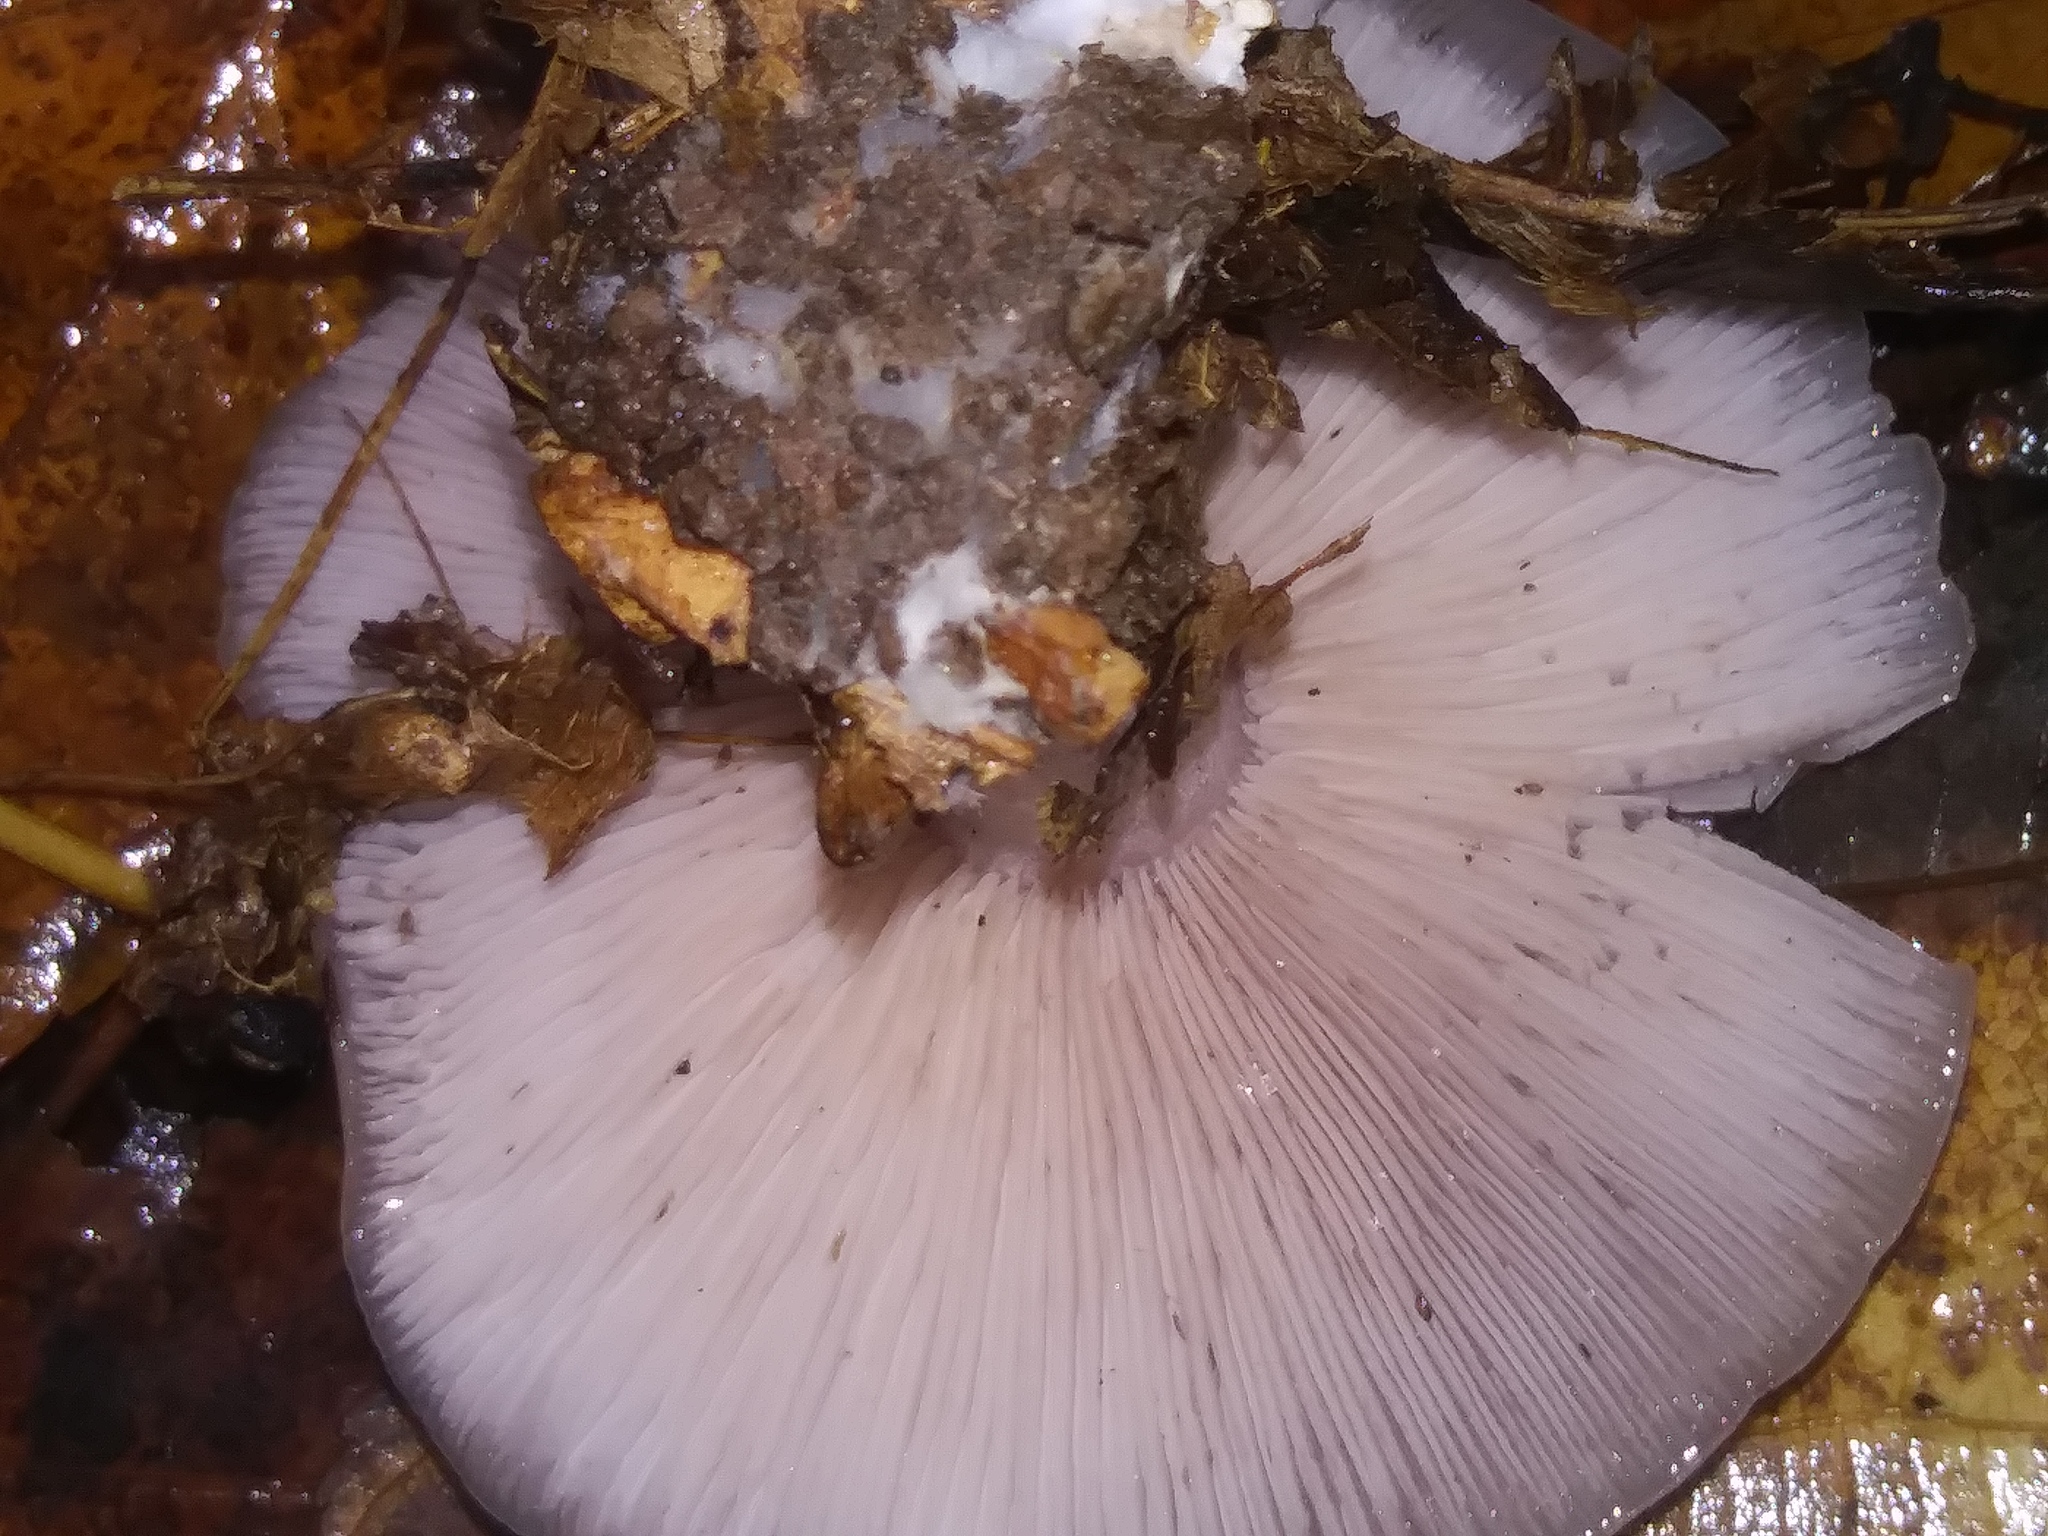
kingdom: Fungi
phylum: Basidiomycota
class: Agaricomycetes
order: Agaricales
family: Tricholomataceae
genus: Collybia
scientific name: Collybia
